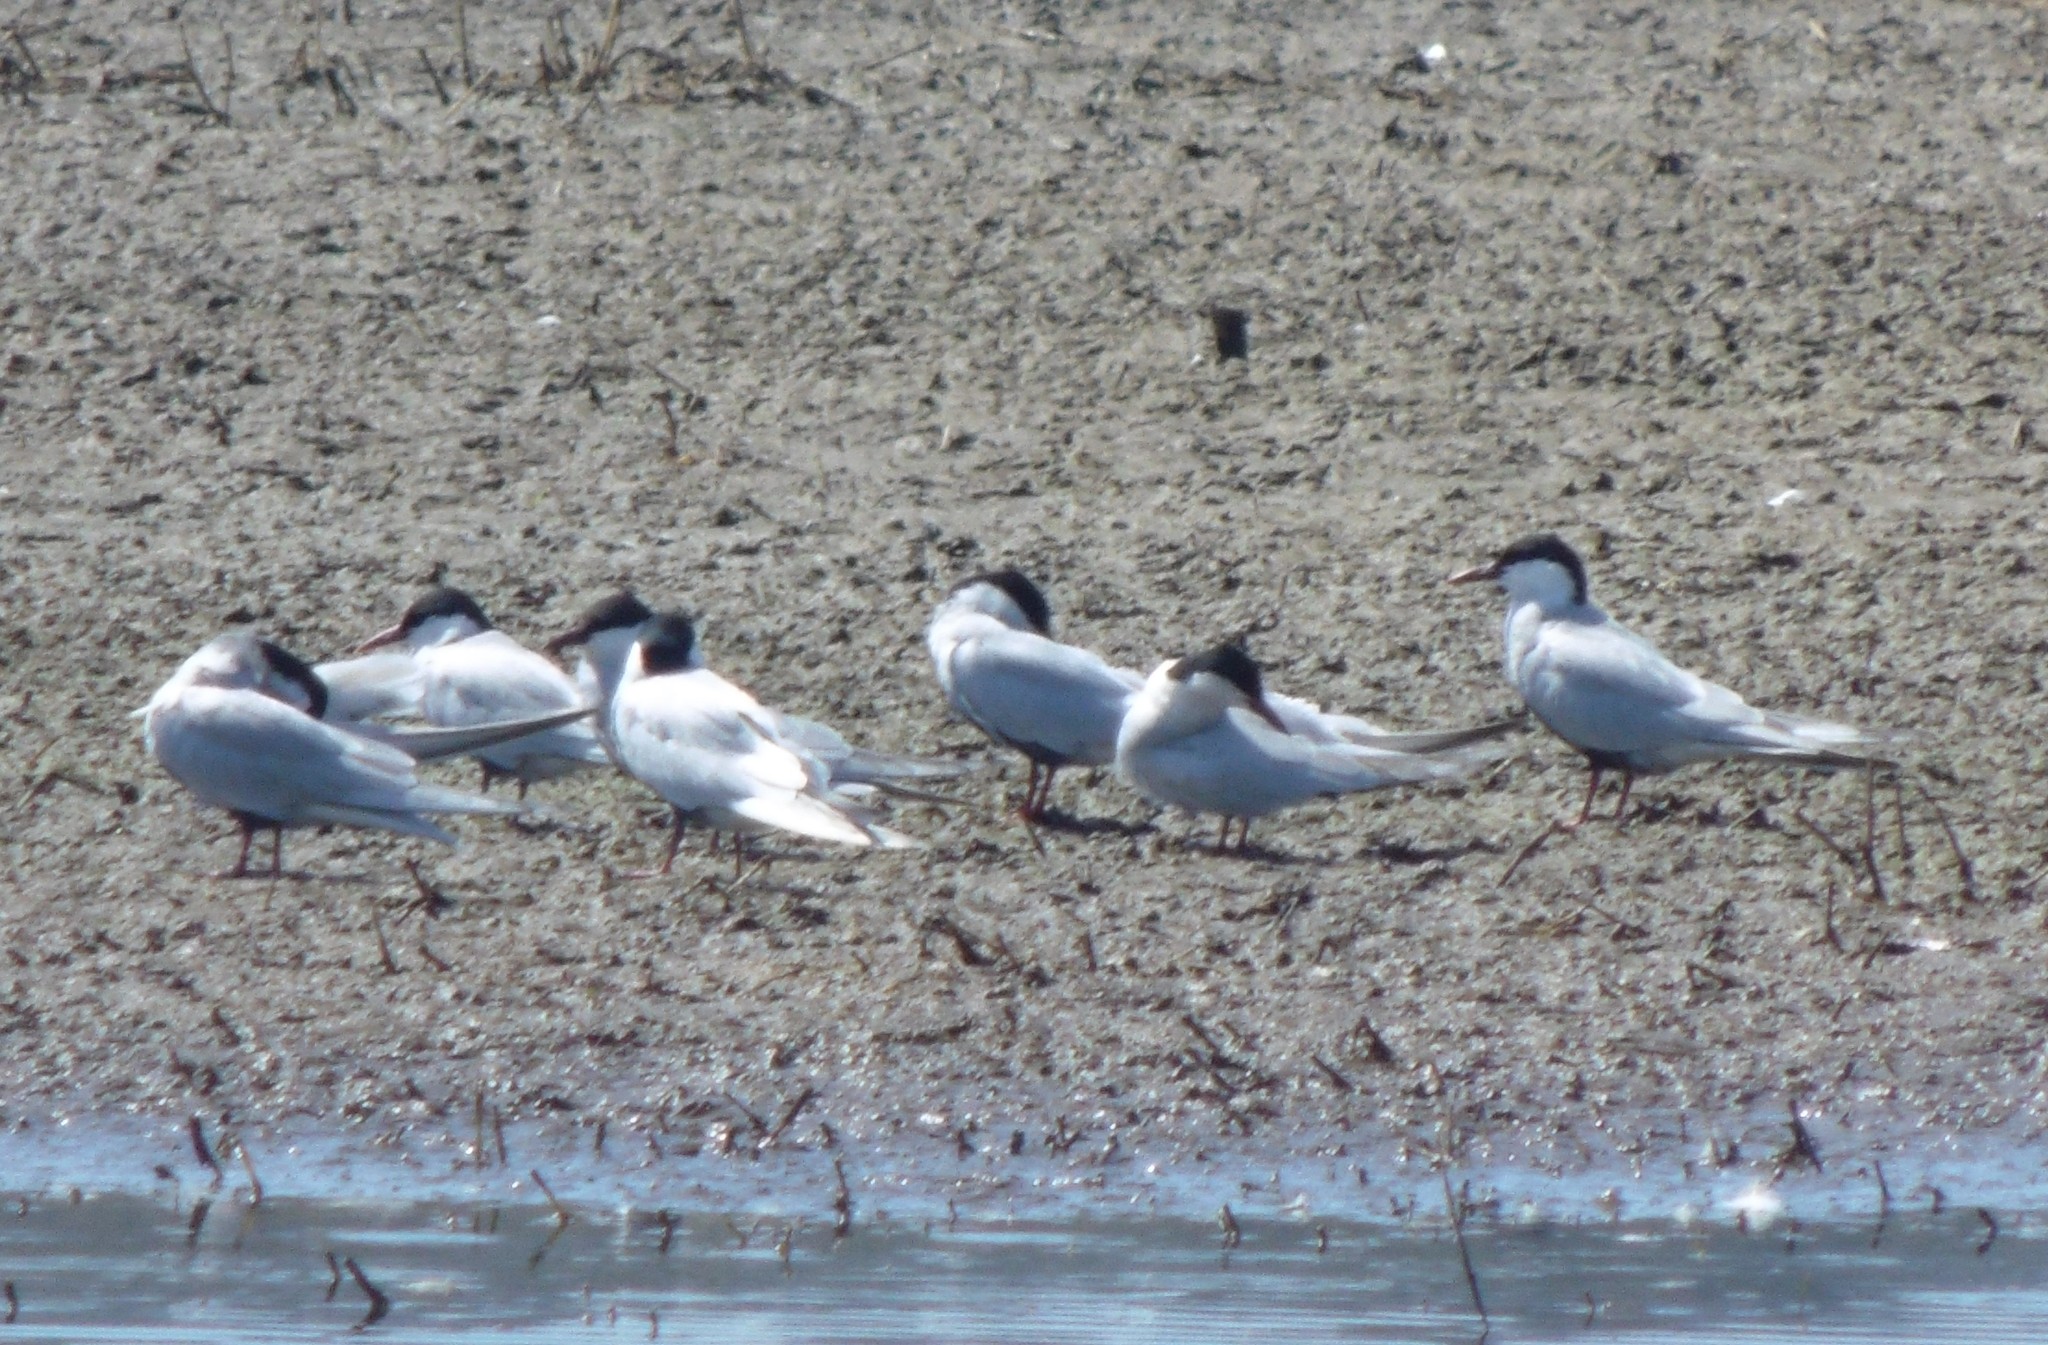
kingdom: Animalia
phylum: Chordata
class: Aves
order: Charadriiformes
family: Laridae
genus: Chlidonias
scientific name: Chlidonias hybrida
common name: Whiskered tern
